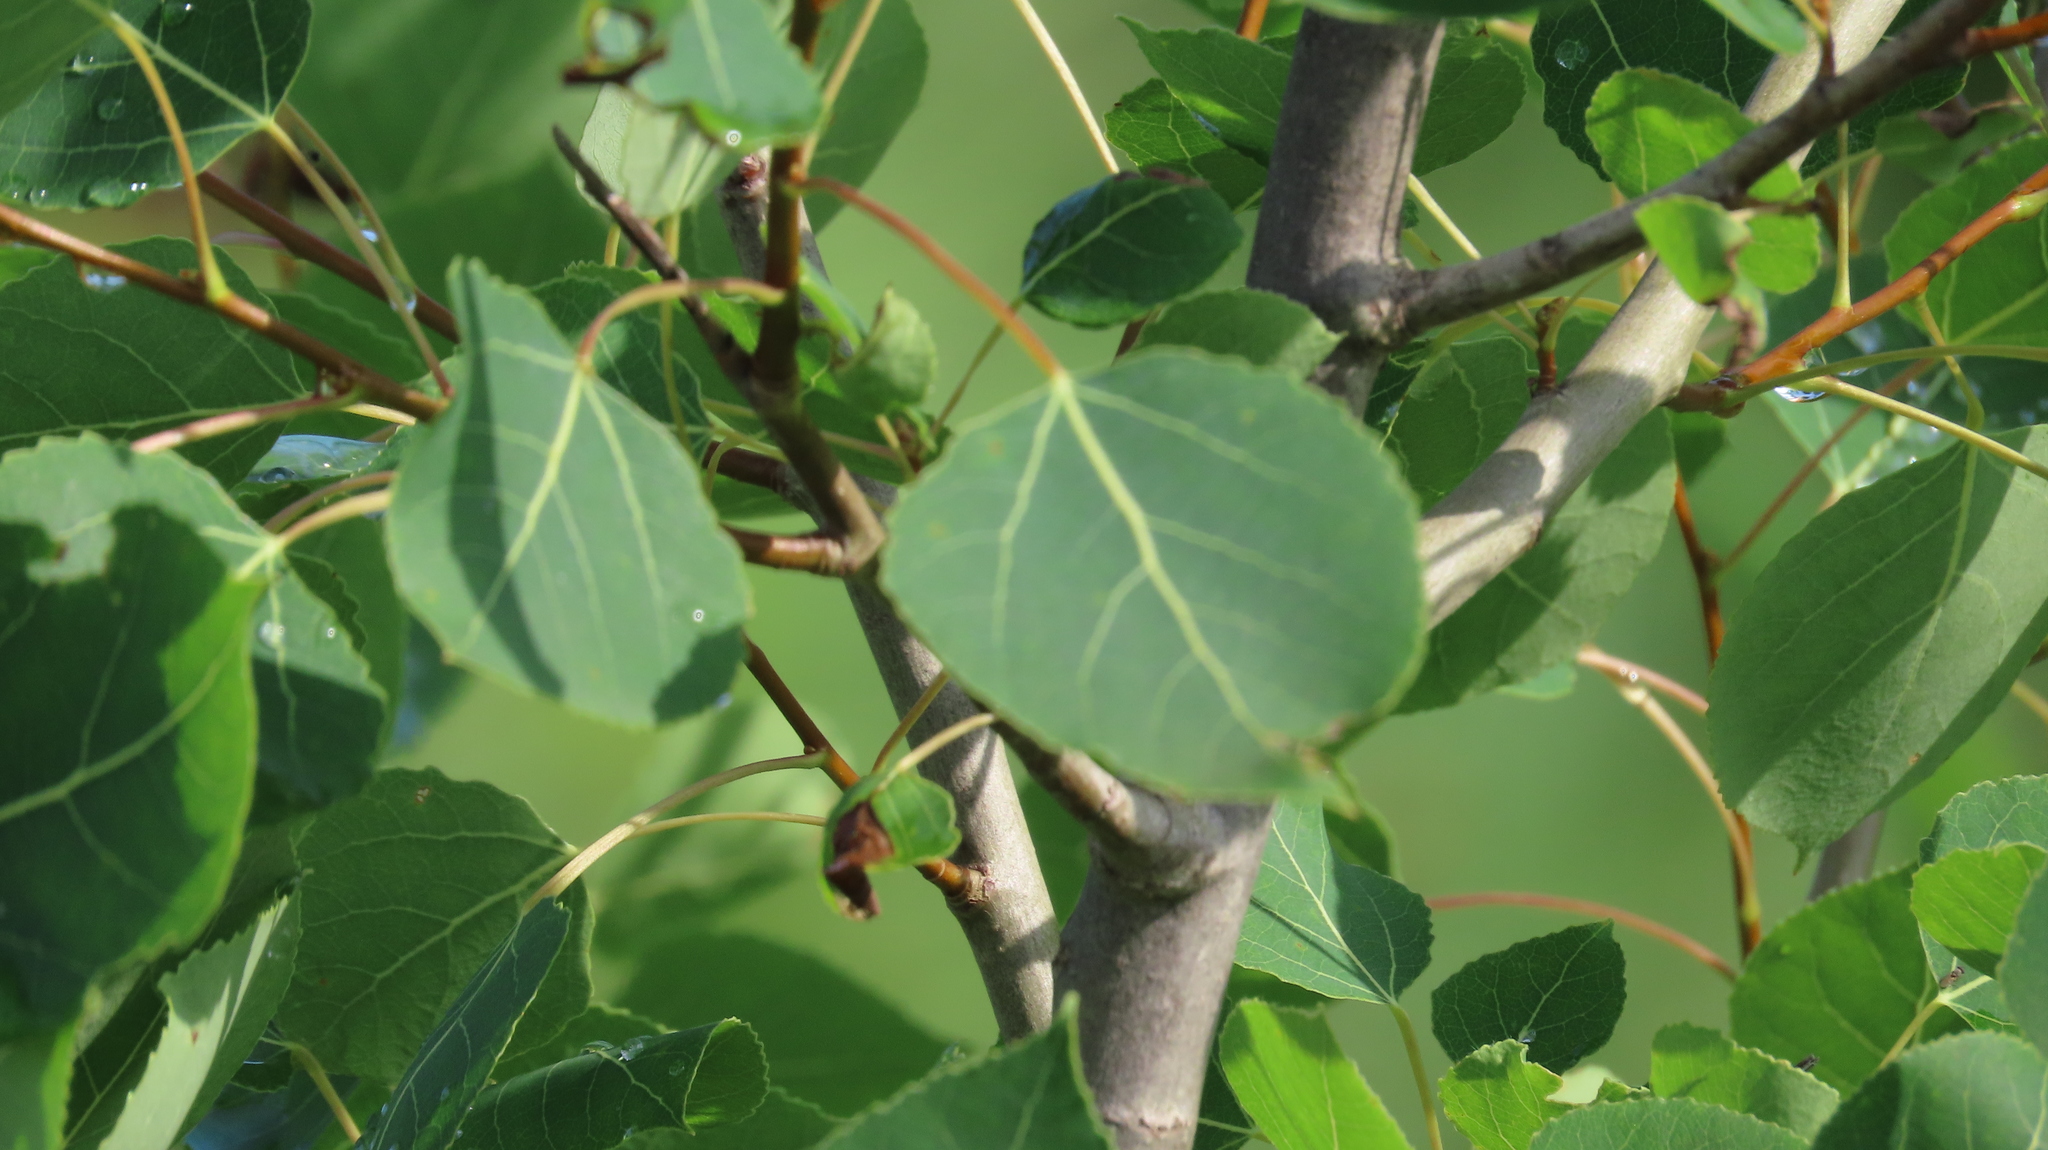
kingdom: Plantae
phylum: Tracheophyta
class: Magnoliopsida
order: Malpighiales
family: Salicaceae
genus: Populus
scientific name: Populus tremuloides
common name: Quaking aspen
